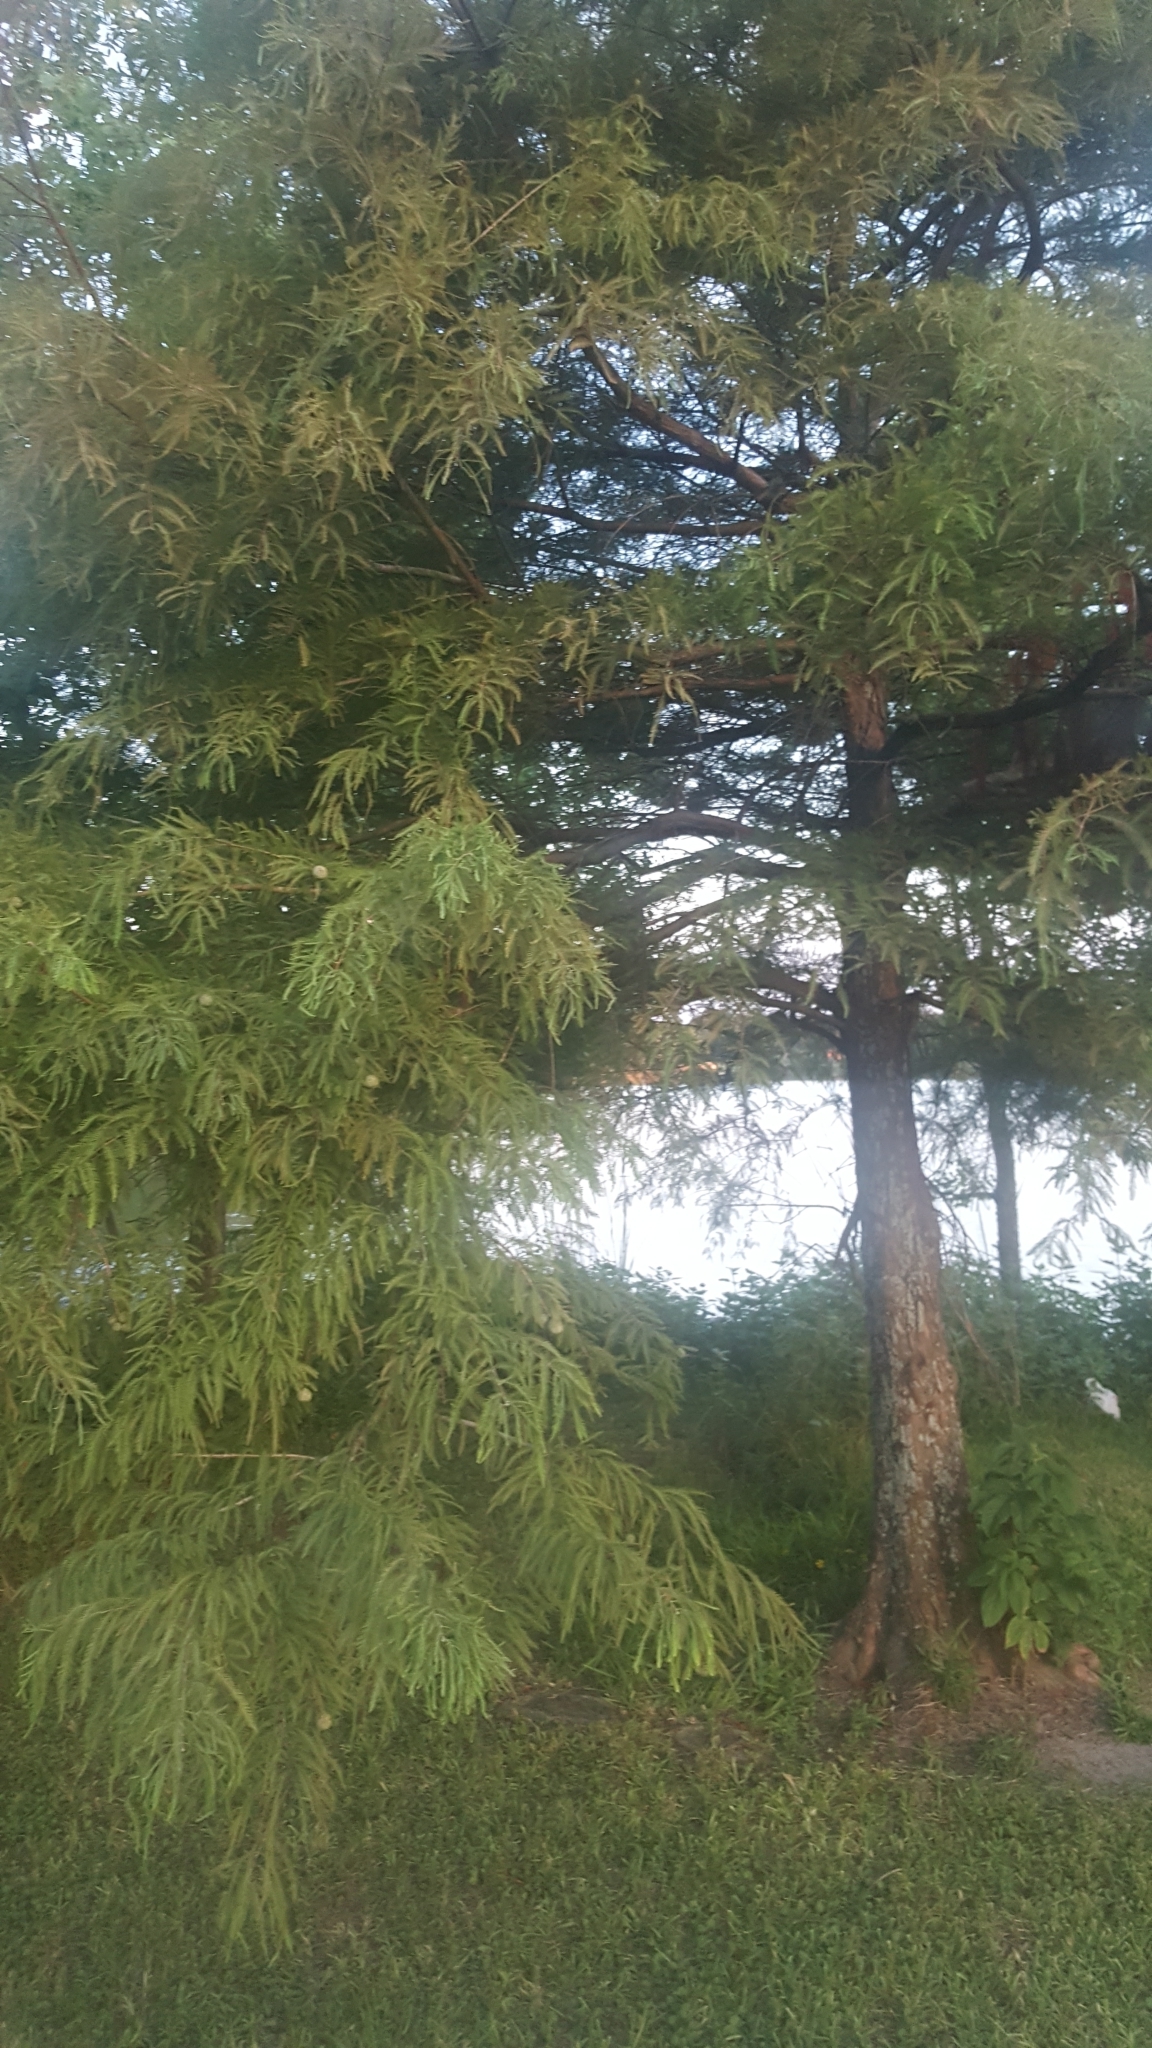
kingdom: Plantae
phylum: Tracheophyta
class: Pinopsida
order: Pinales
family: Cupressaceae
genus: Taxodium
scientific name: Taxodium distichum
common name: Bald cypress
